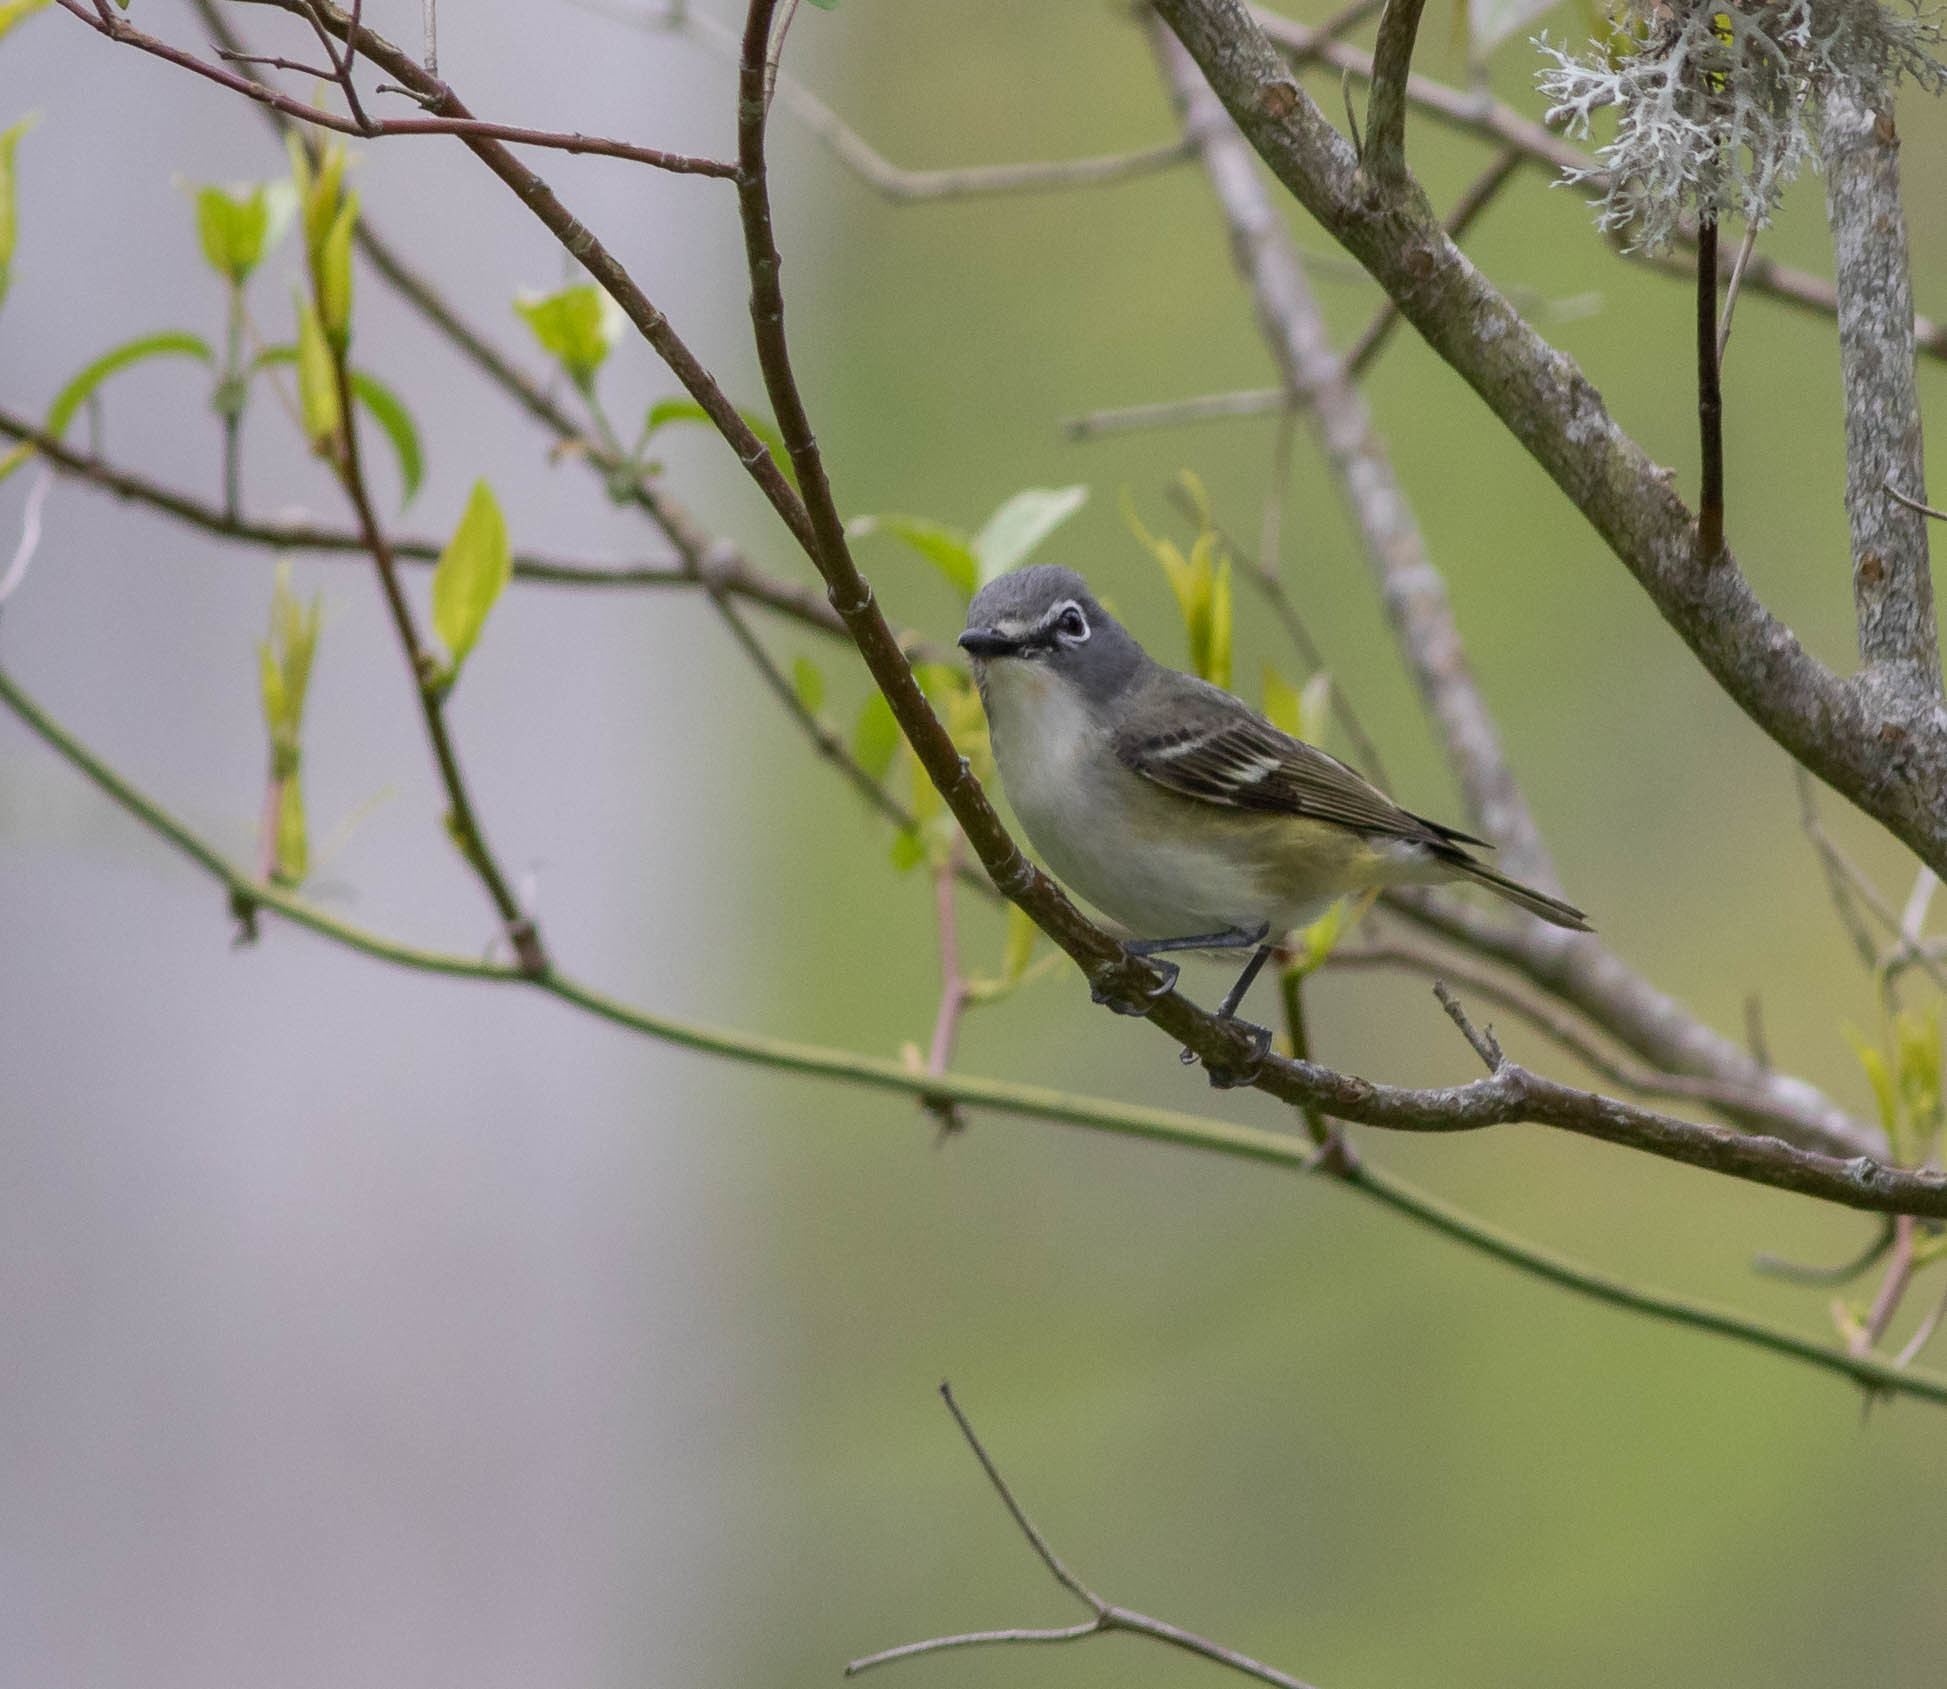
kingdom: Animalia
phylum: Chordata
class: Aves
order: Passeriformes
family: Vireonidae
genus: Vireo
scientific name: Vireo solitarius
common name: Blue-headed vireo
